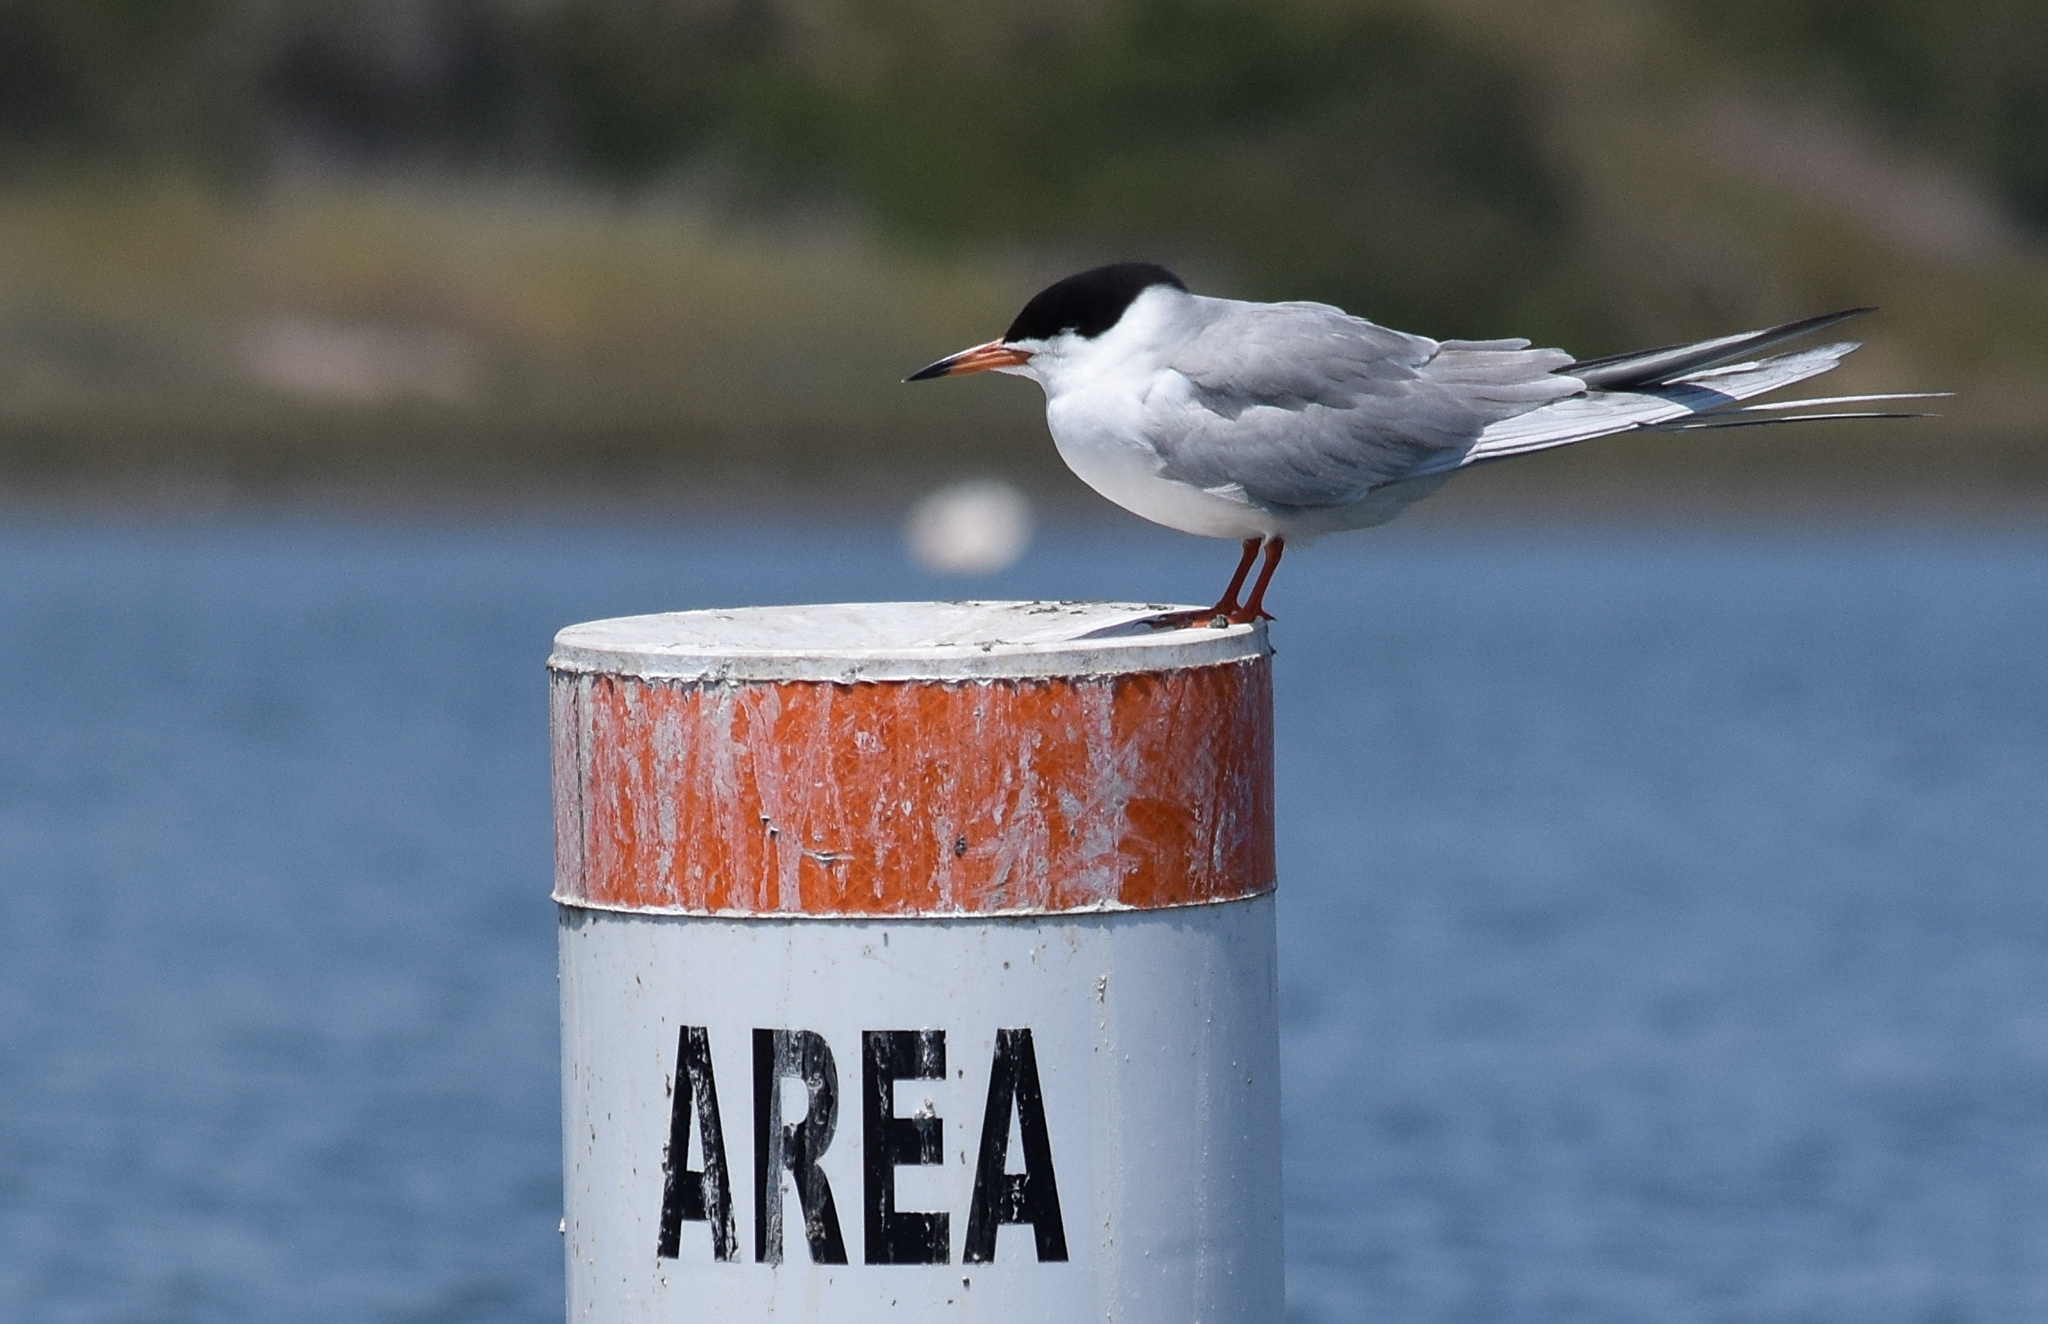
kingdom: Animalia
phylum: Chordata
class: Aves
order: Charadriiformes
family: Laridae
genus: Sterna
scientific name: Sterna forsteri
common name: Forster's tern
